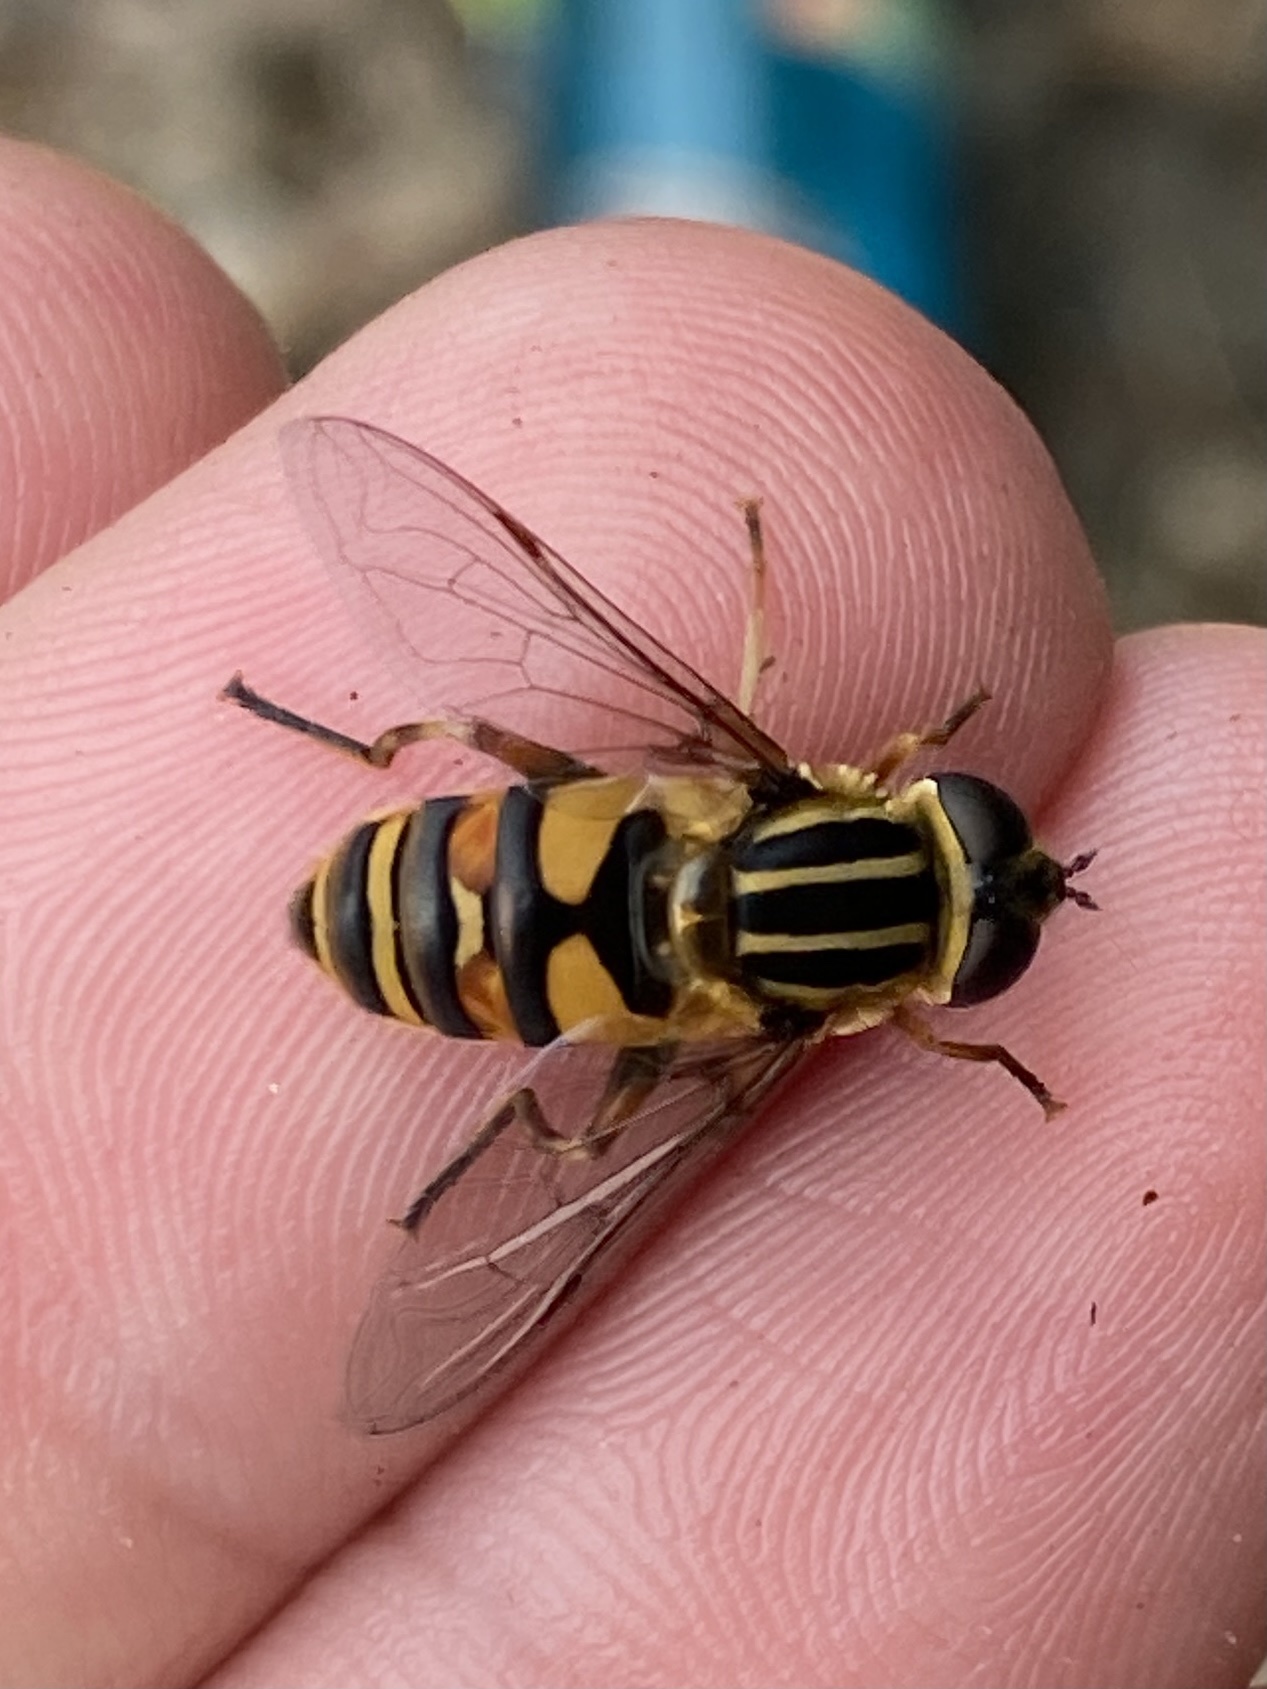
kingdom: Animalia
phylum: Arthropoda
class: Insecta
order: Diptera
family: Syrphidae
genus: Helophilus
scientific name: Helophilus fasciatus
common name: Narrow-headed marsh fly
